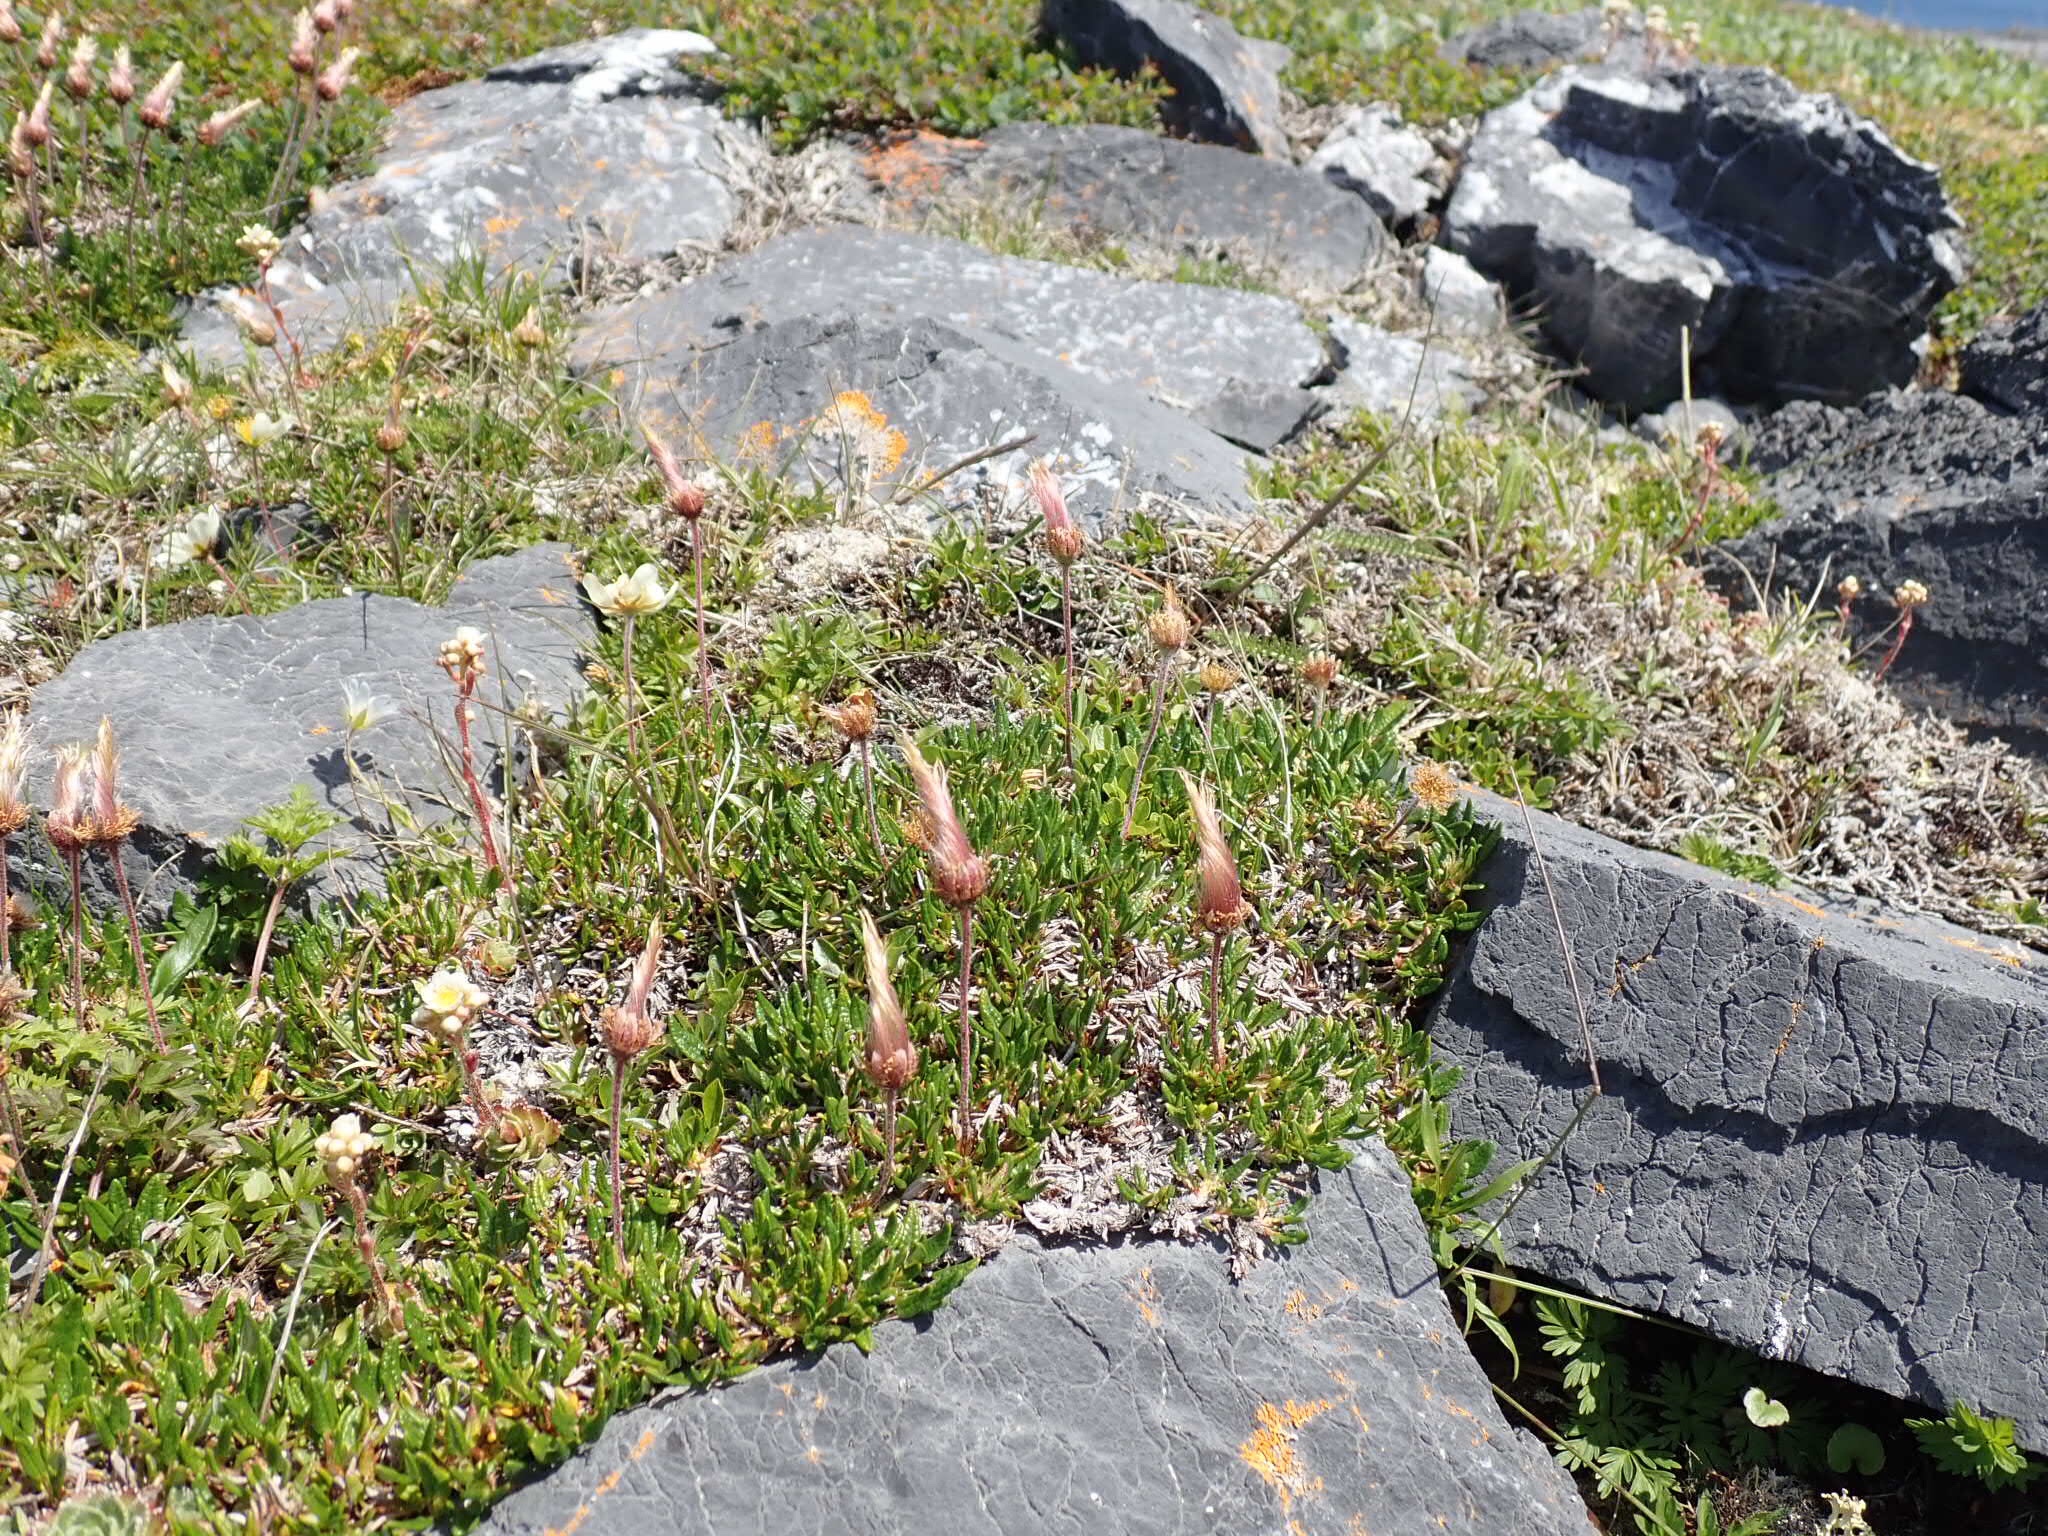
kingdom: Plantae
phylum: Tracheophyta
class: Magnoliopsida
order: Rosales
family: Rosaceae
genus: Dryas
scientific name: Dryas integrifolia
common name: Entire-leaved mountain avens
